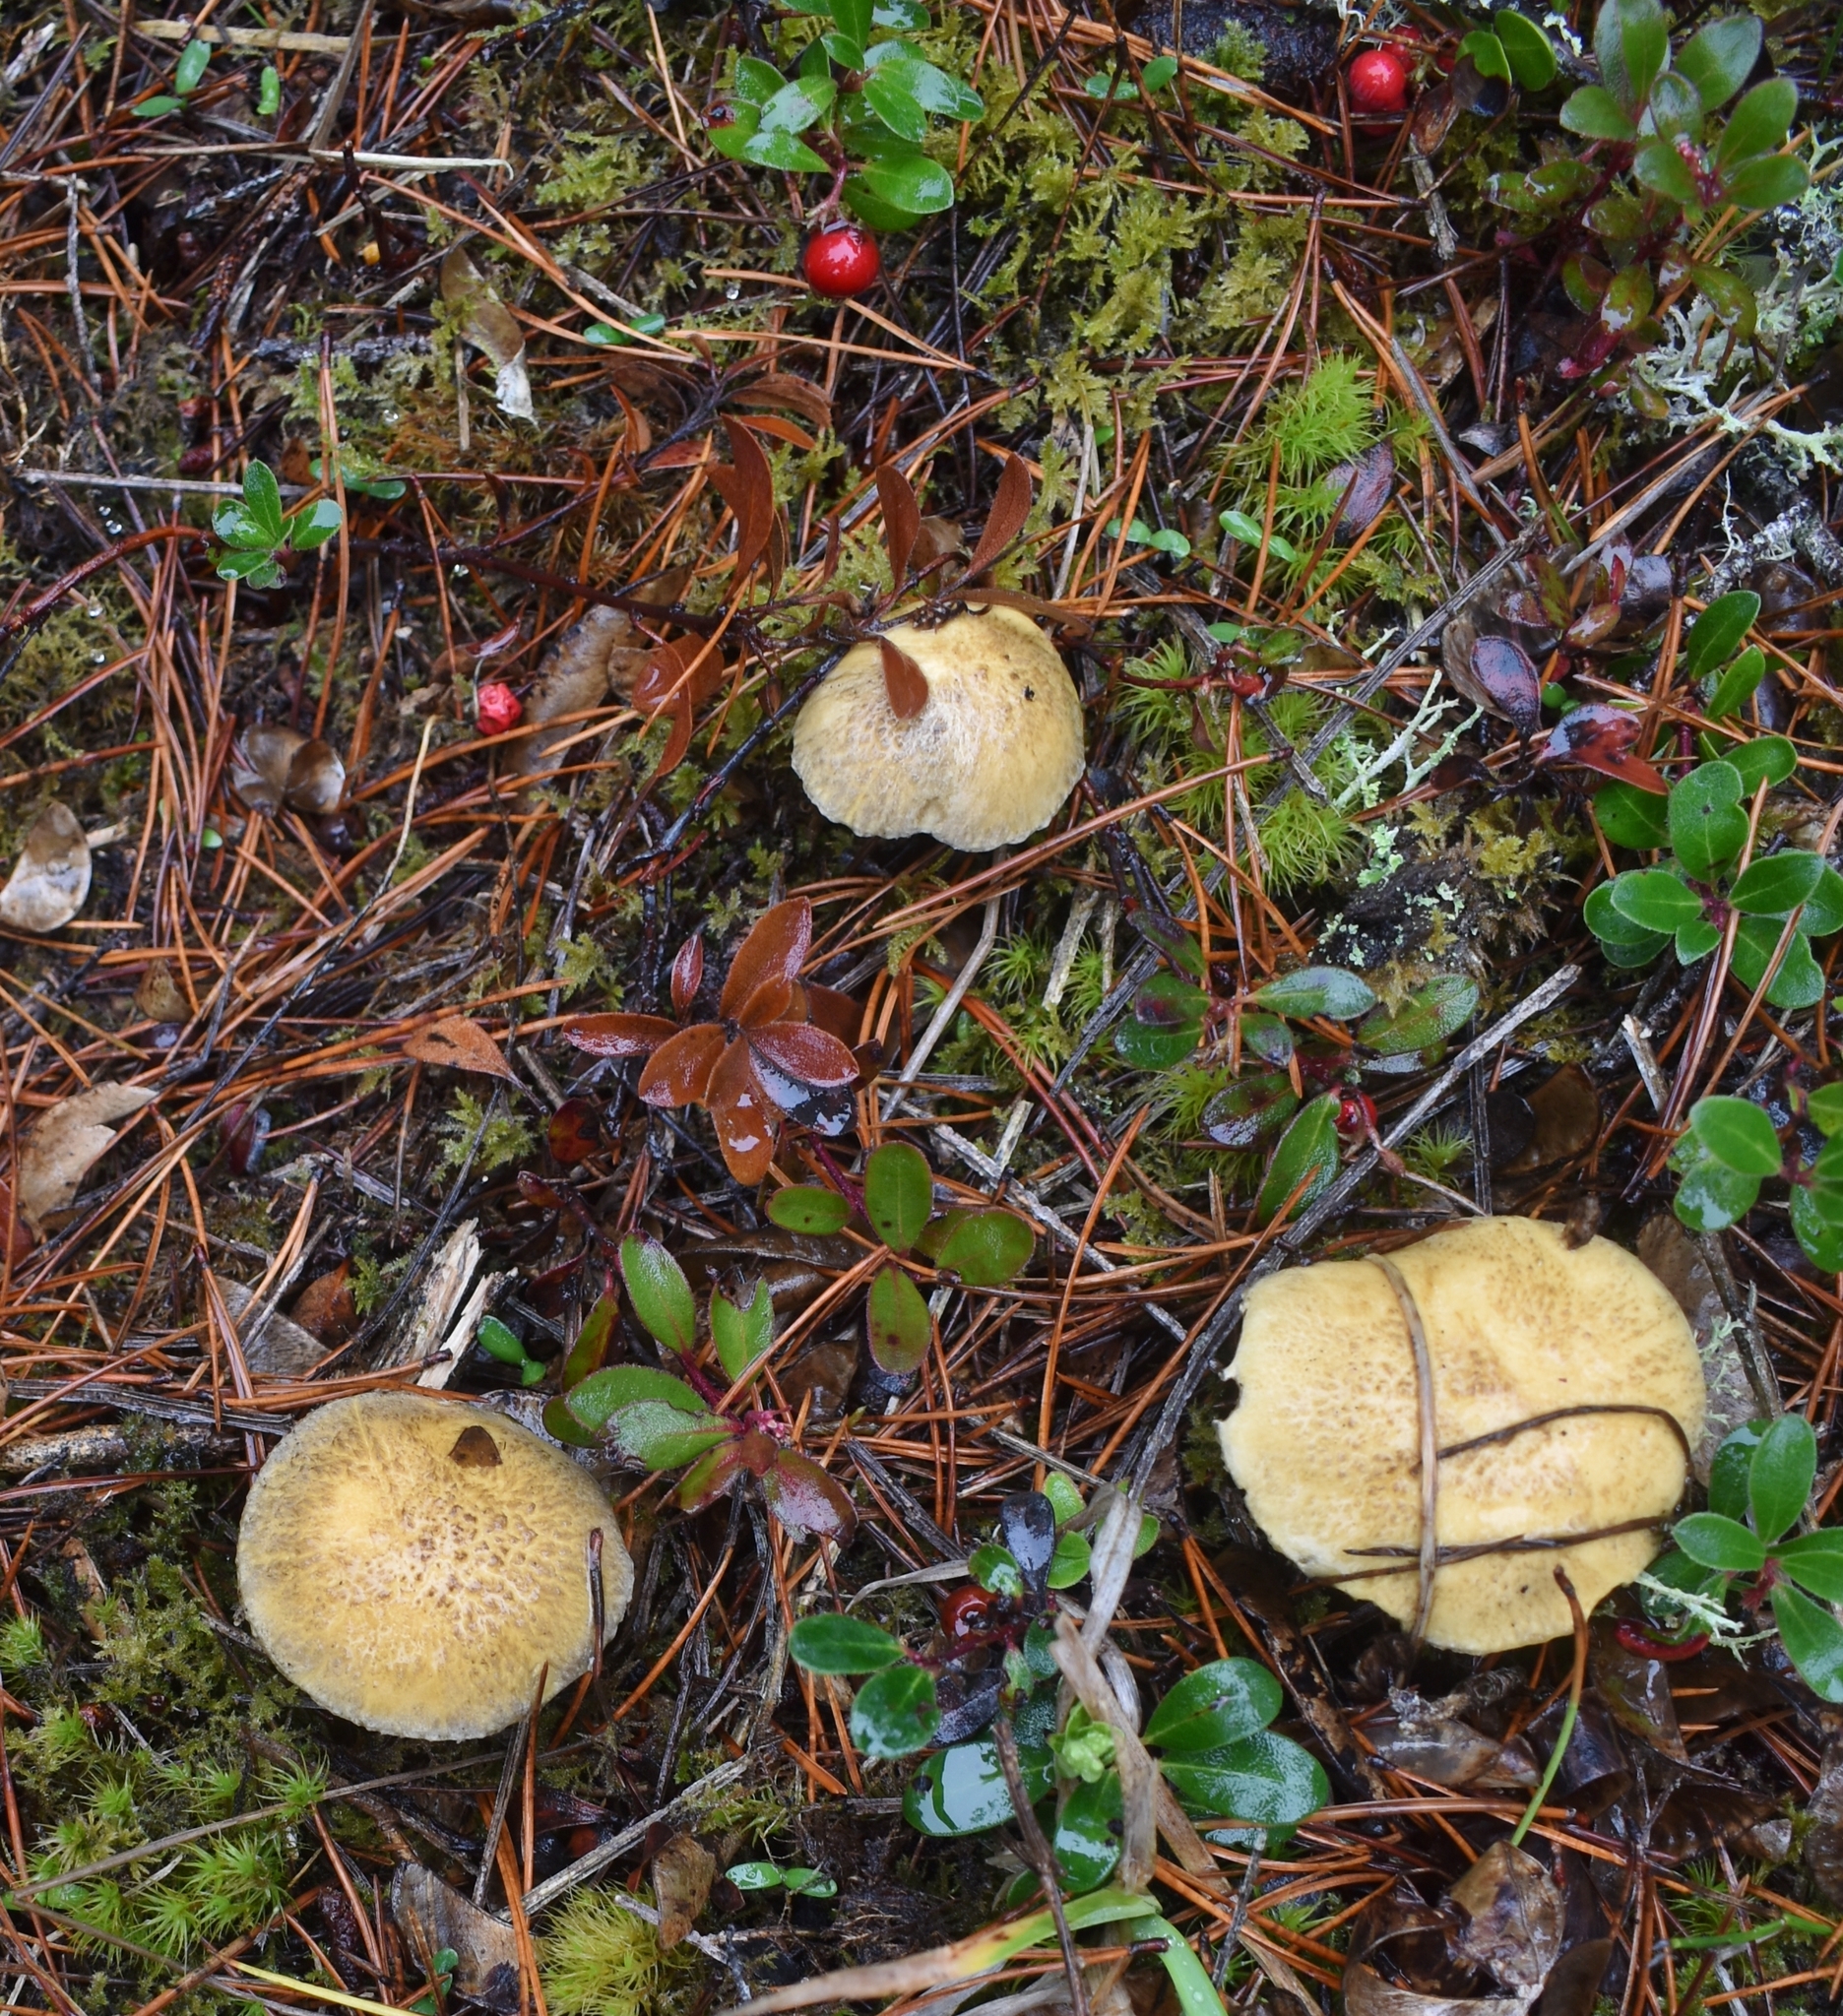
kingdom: Fungi
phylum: Basidiomycota
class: Agaricomycetes
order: Boletales
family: Suillaceae
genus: Suillus
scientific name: Suillus tomentosus
